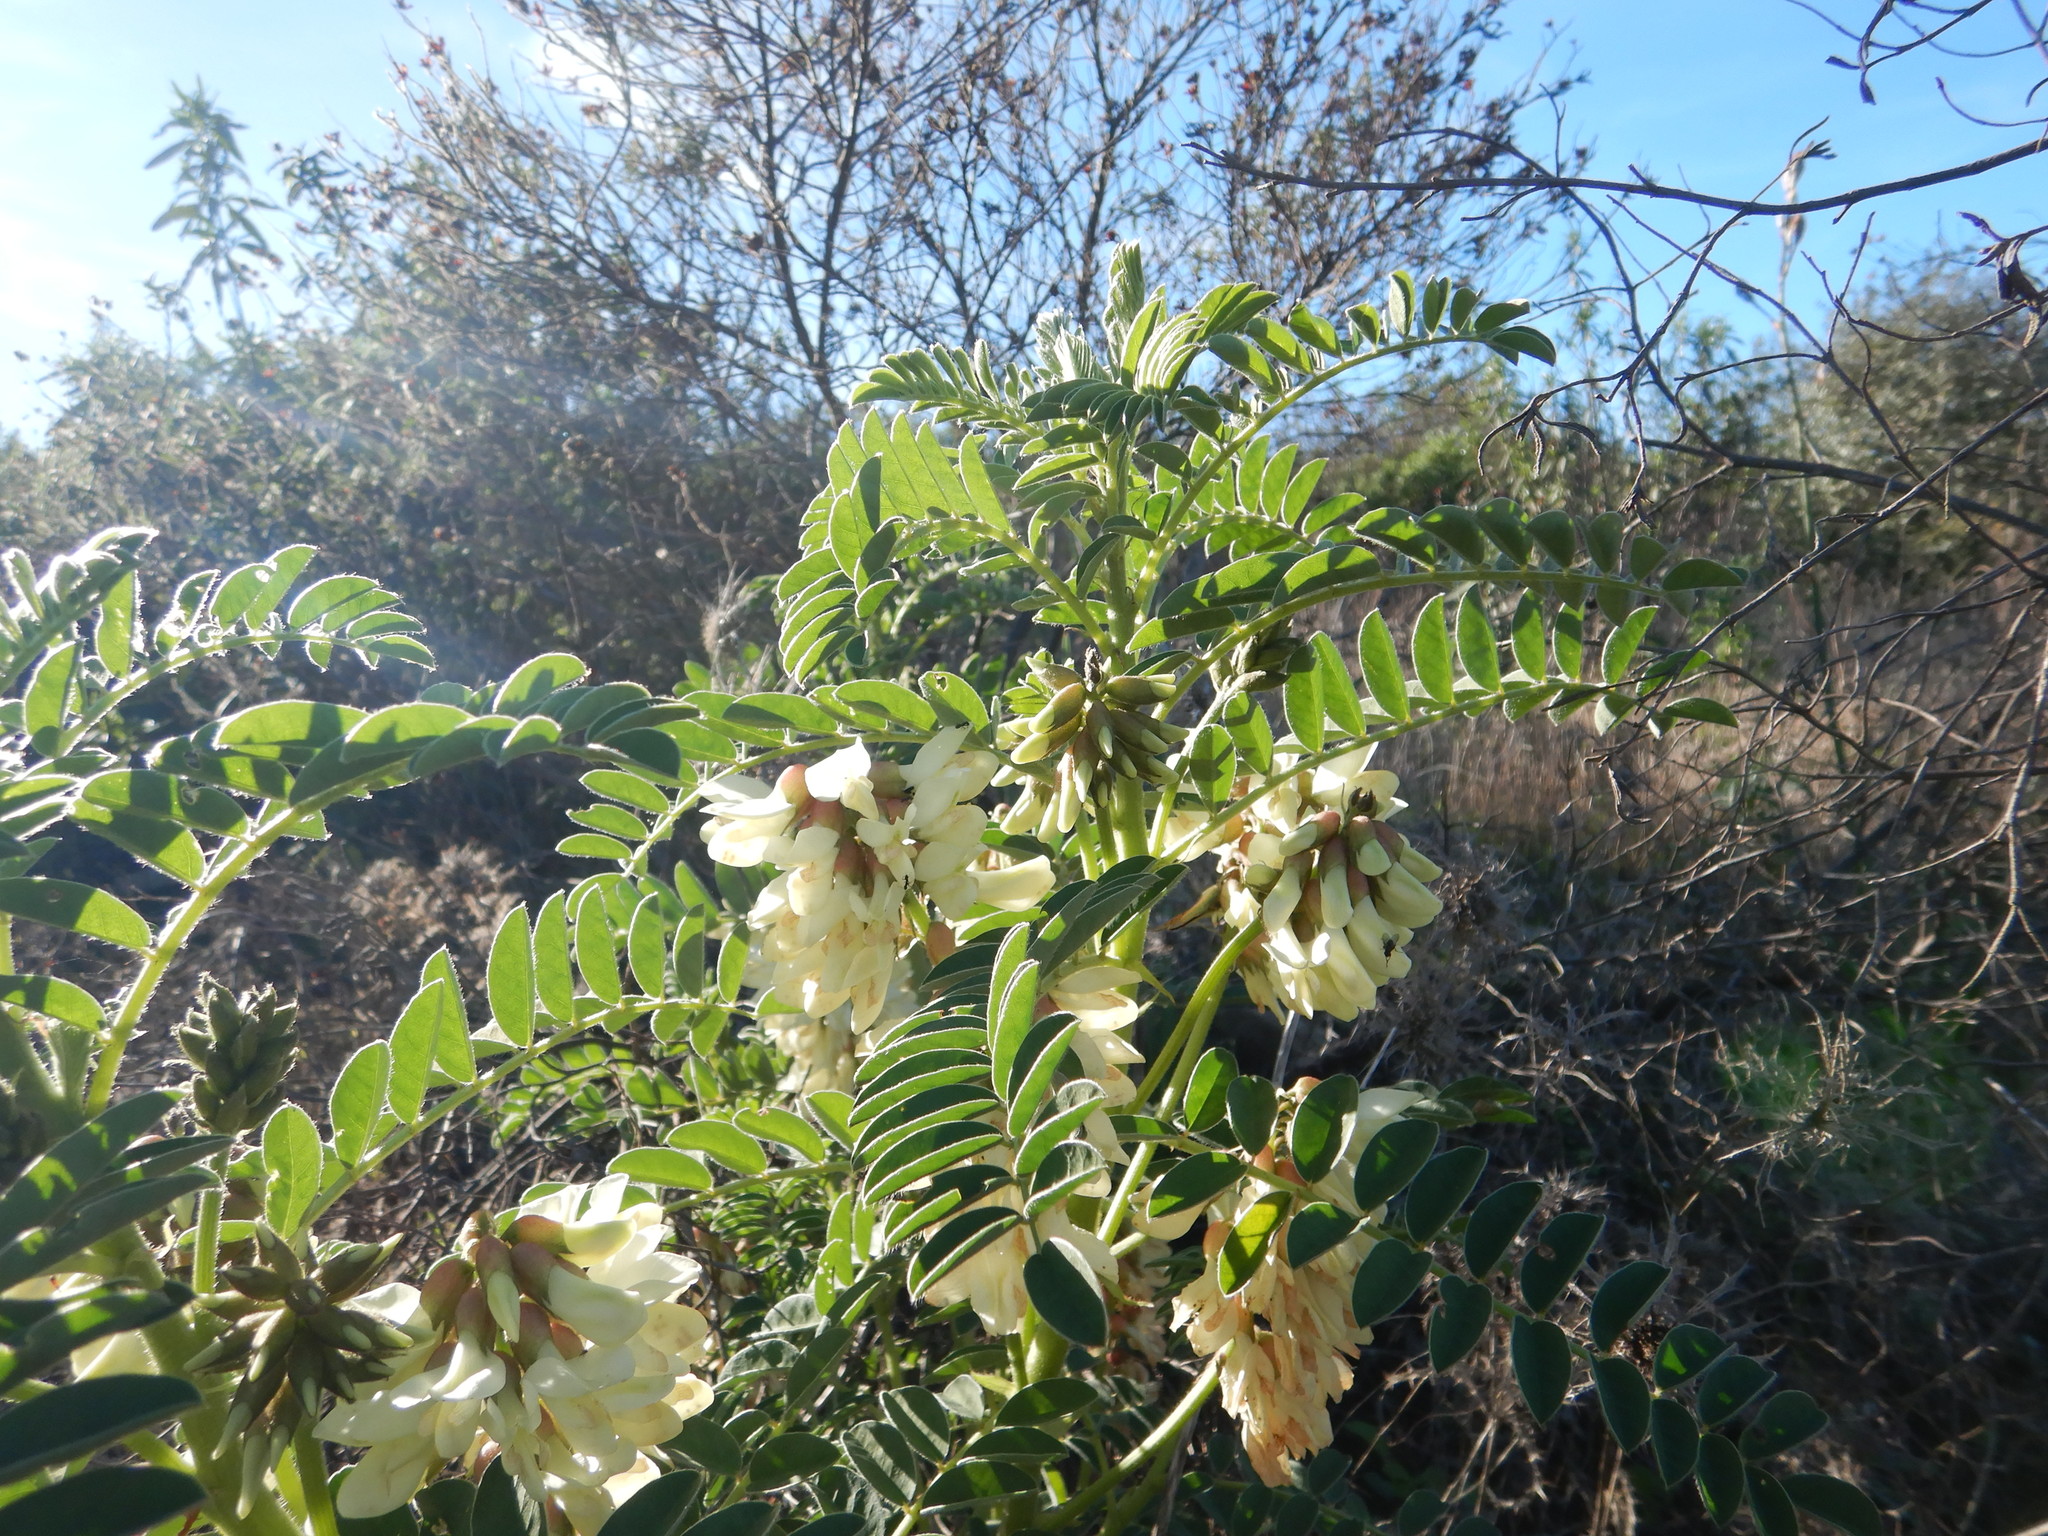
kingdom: Plantae
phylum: Tracheophyta
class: Magnoliopsida
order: Fabales
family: Fabaceae
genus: Erophaca
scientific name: Erophaca baetica
